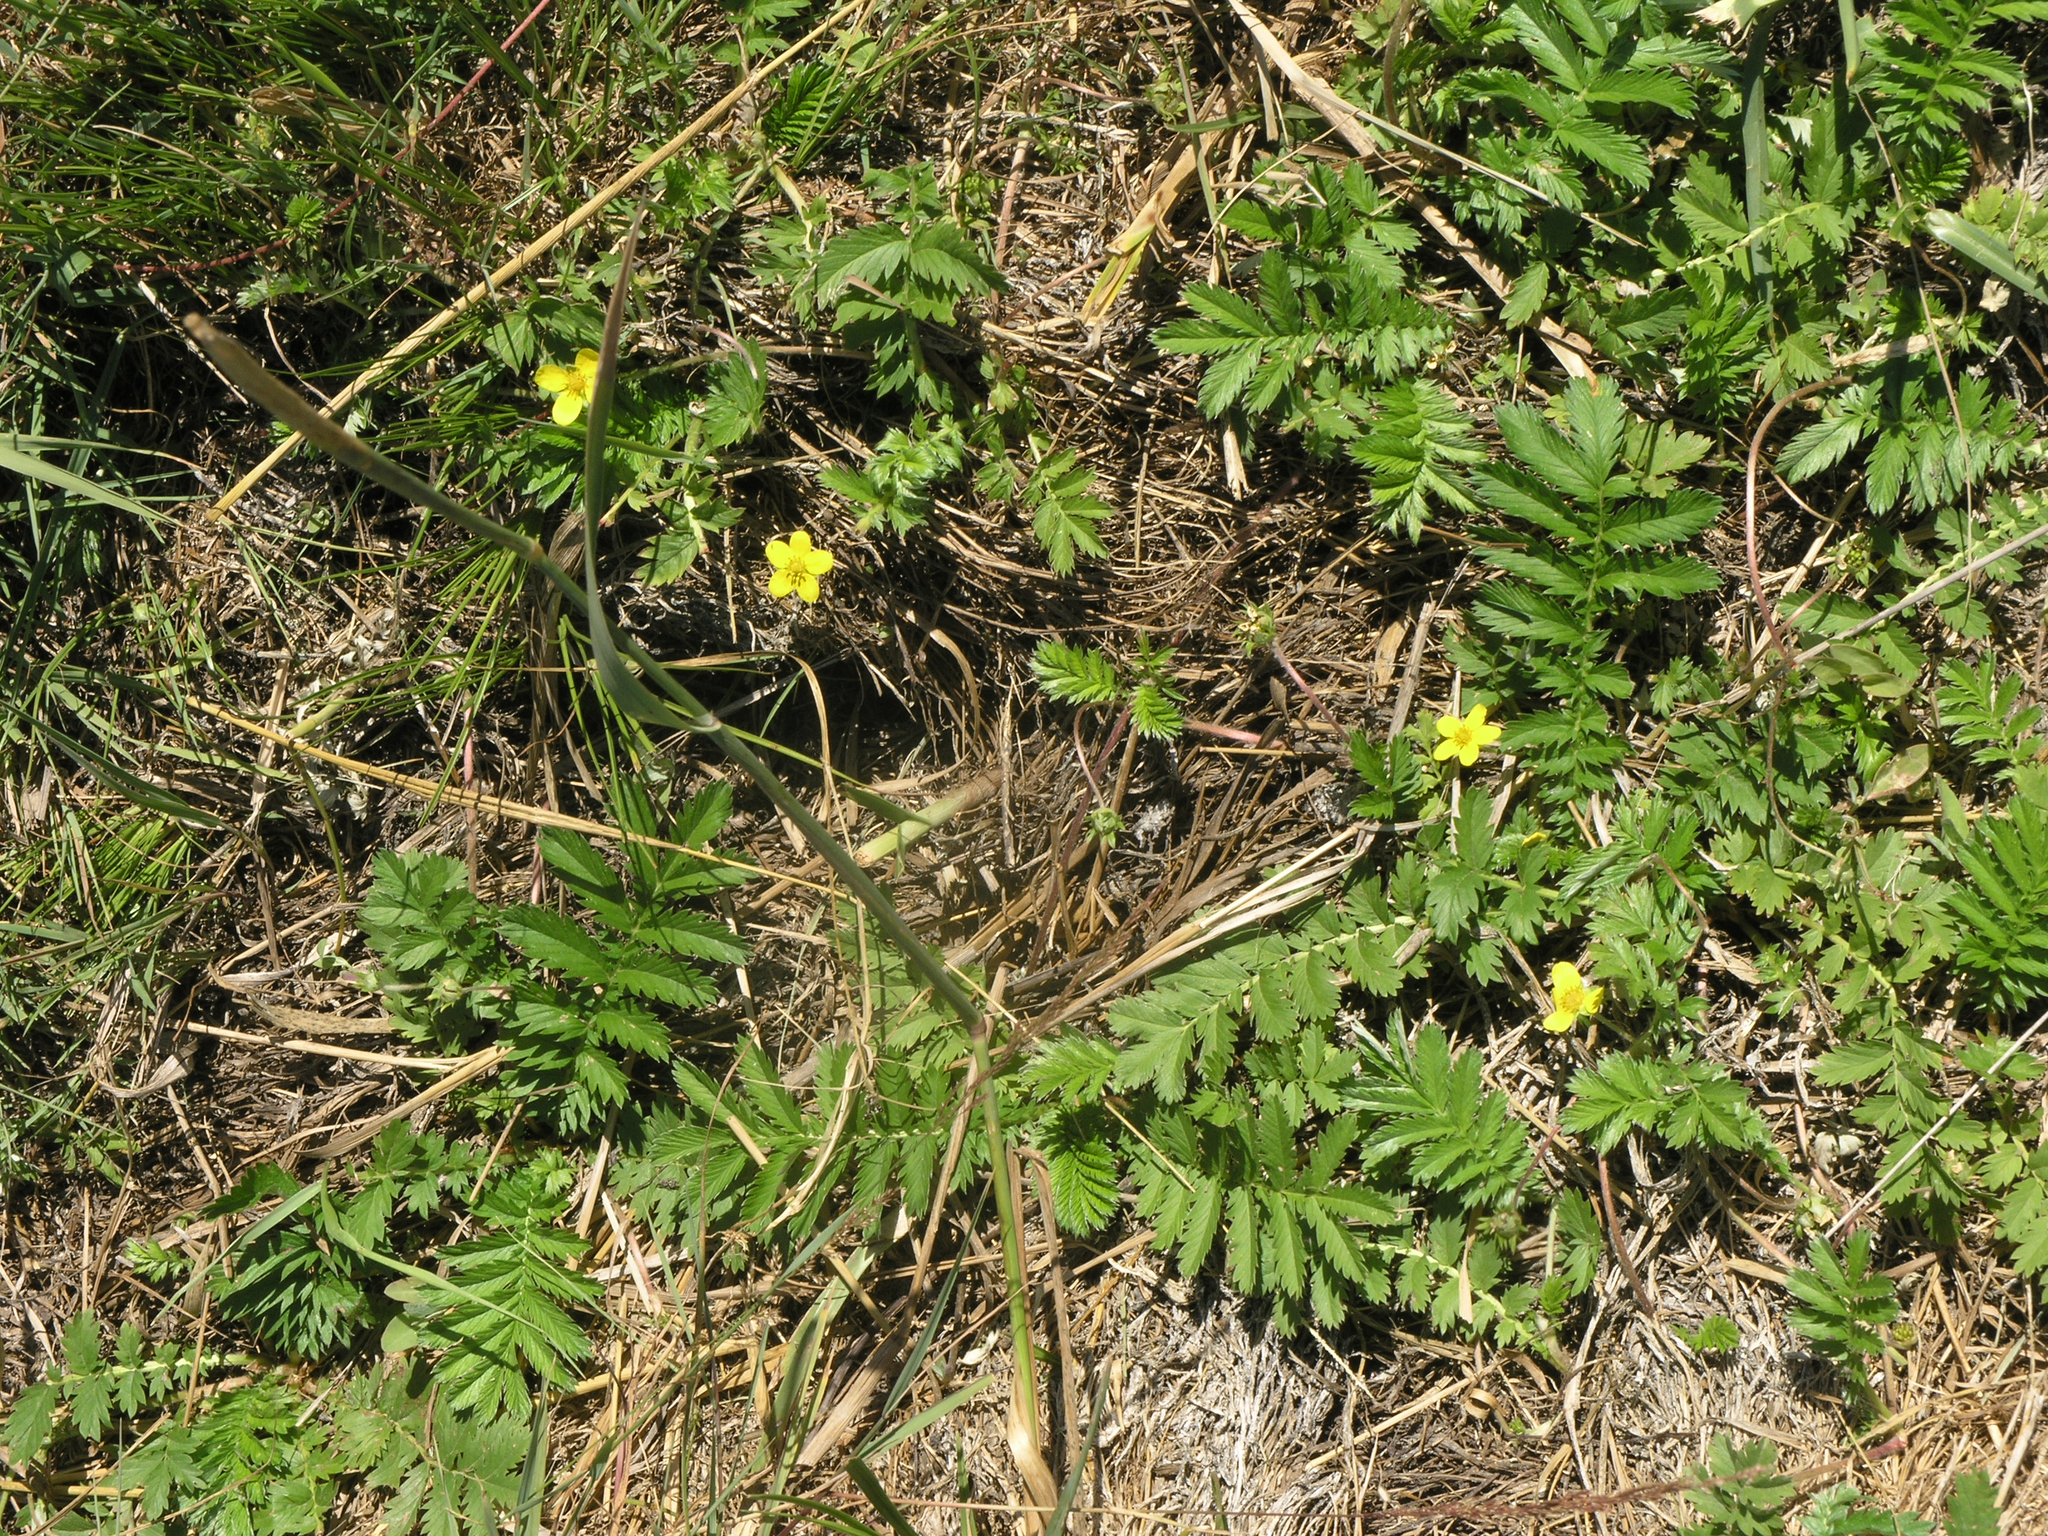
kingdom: Plantae
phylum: Tracheophyta
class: Magnoliopsida
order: Rosales
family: Rosaceae
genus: Argentina
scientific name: Argentina anserina
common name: Common silverweed
